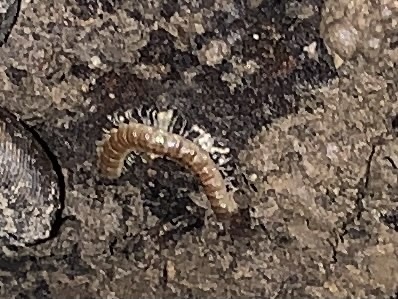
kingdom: Animalia
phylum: Arthropoda
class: Diplopoda
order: Polydesmida
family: Paradoxosomatidae
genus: Oxidus
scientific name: Oxidus gracilis
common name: Greenhouse millipede
